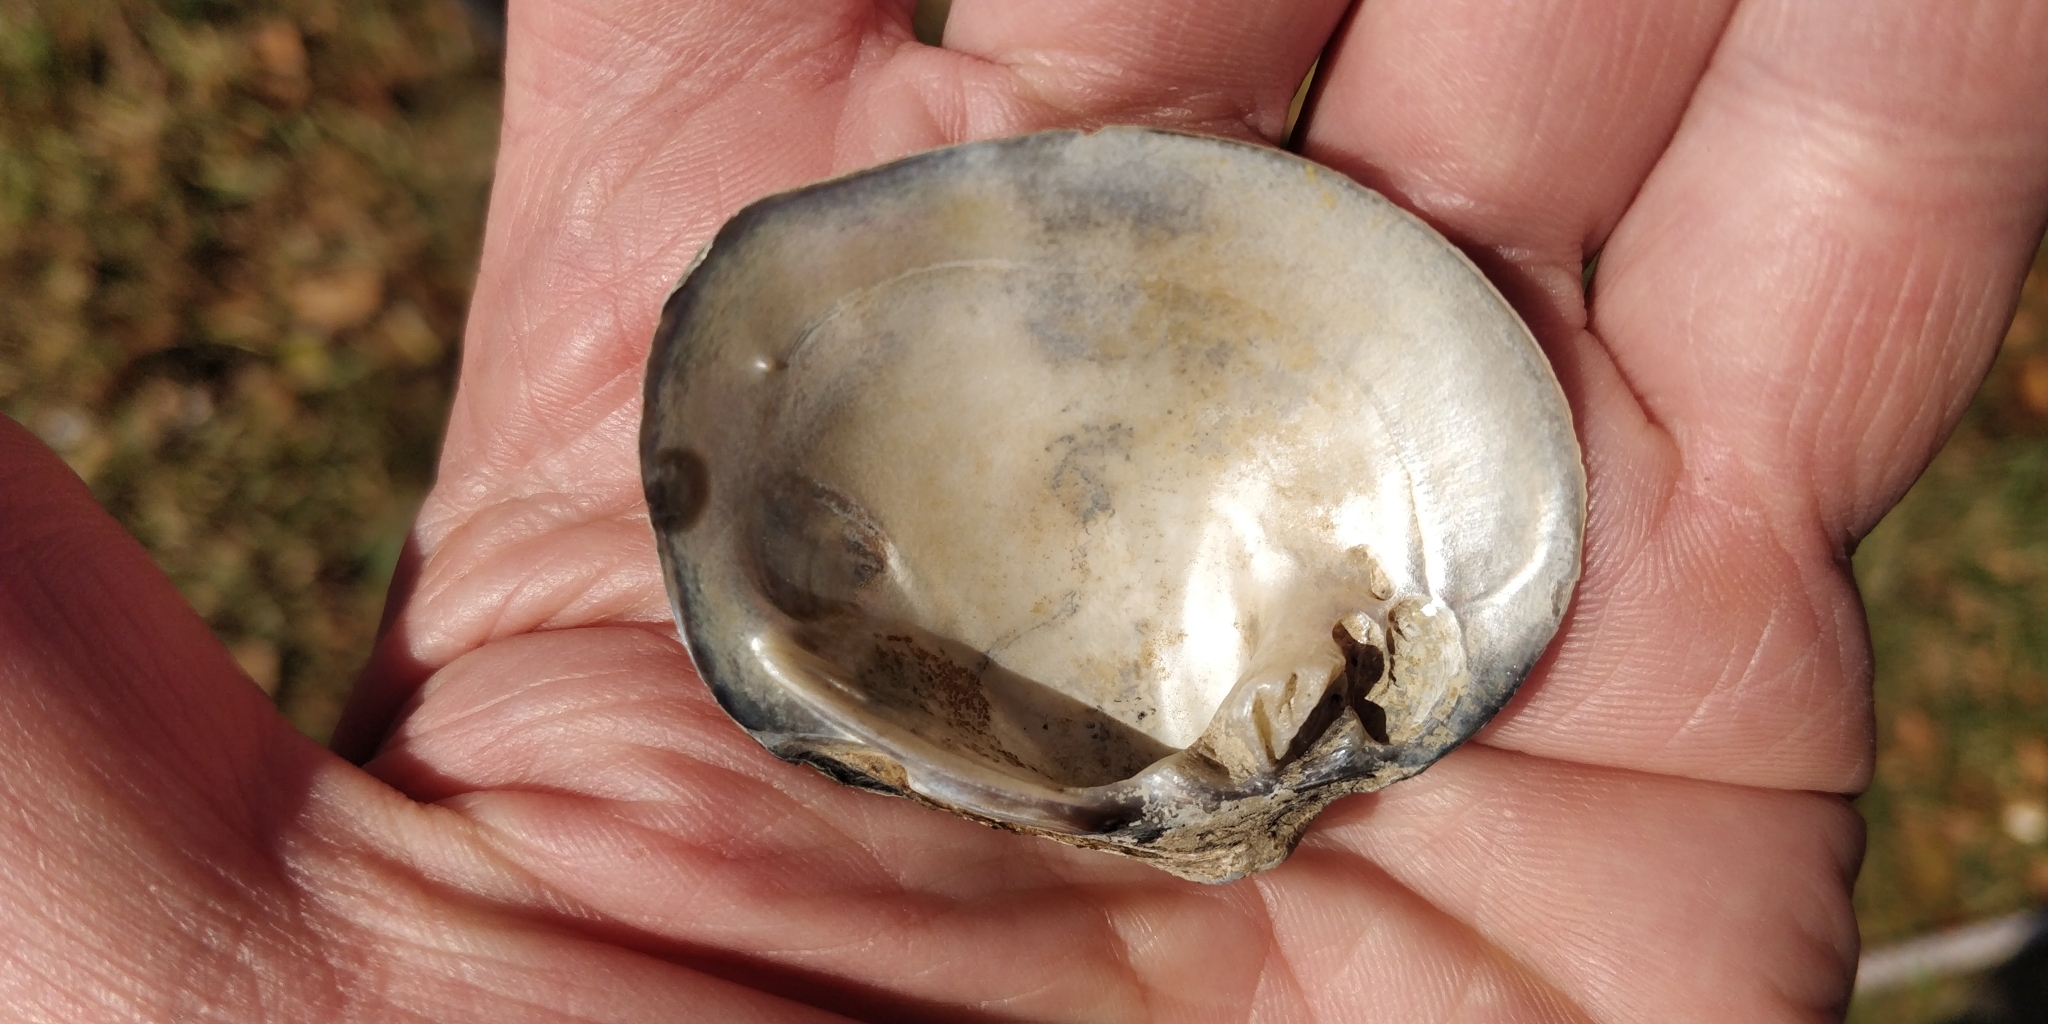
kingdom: Animalia
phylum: Mollusca
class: Bivalvia
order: Unionida
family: Unionidae
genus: Cyclonaias
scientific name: Cyclonaias nodulata
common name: Wartyback
